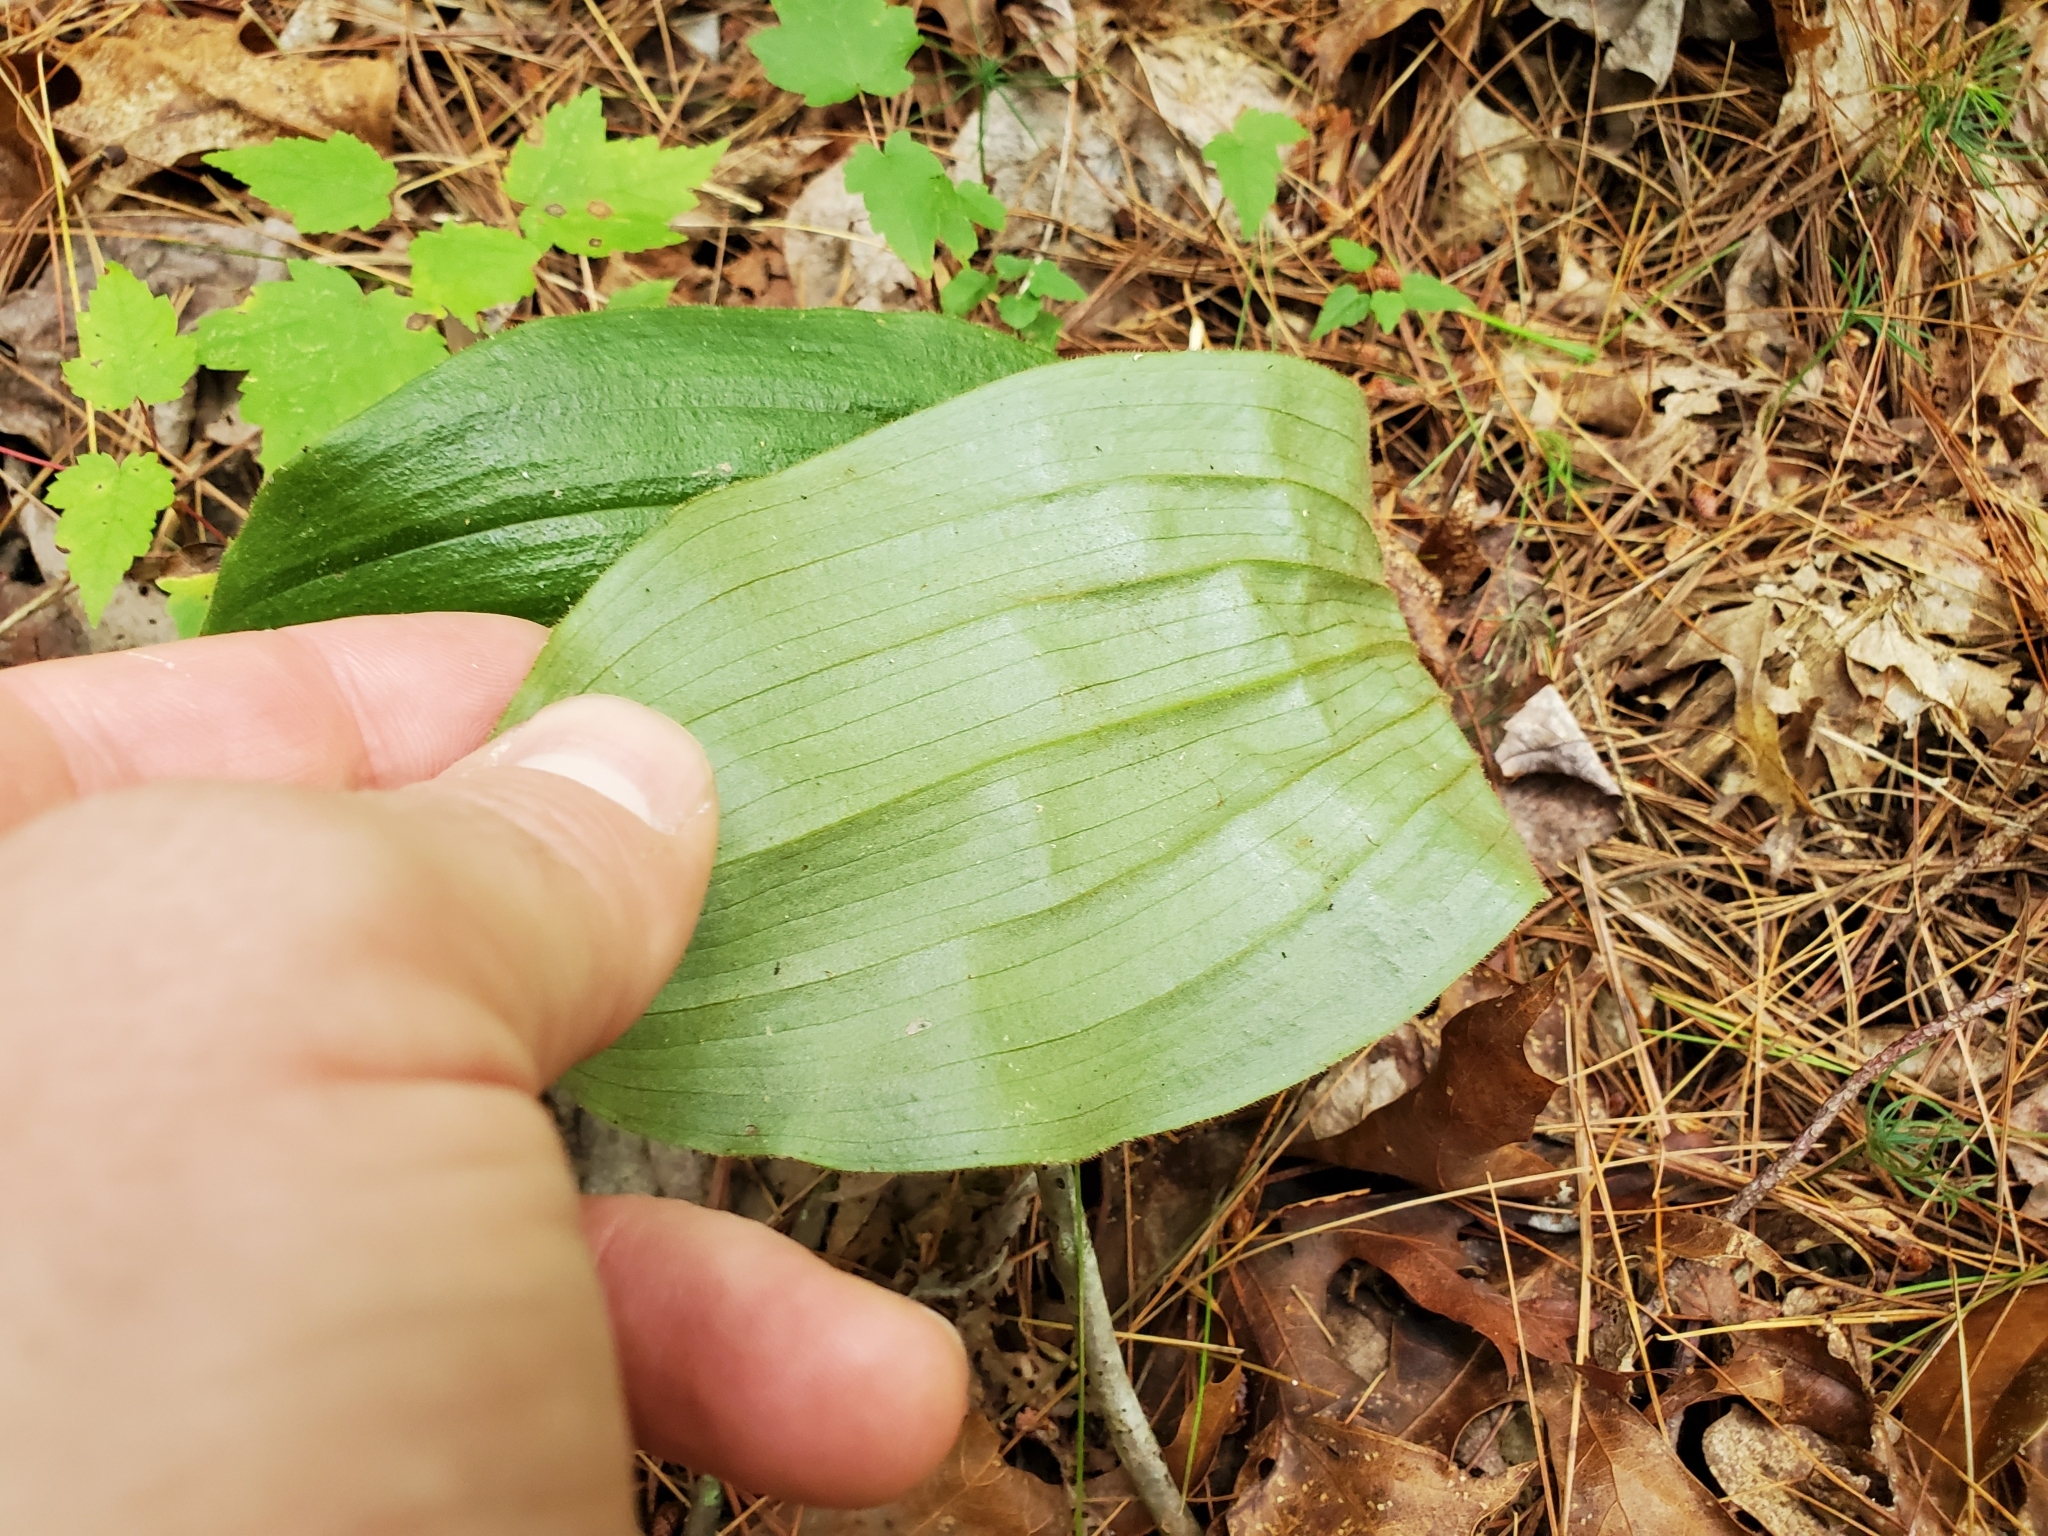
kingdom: Plantae
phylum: Tracheophyta
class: Liliopsida
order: Asparagales
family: Orchidaceae
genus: Cypripedium
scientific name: Cypripedium acaule
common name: Pink lady's-slipper
